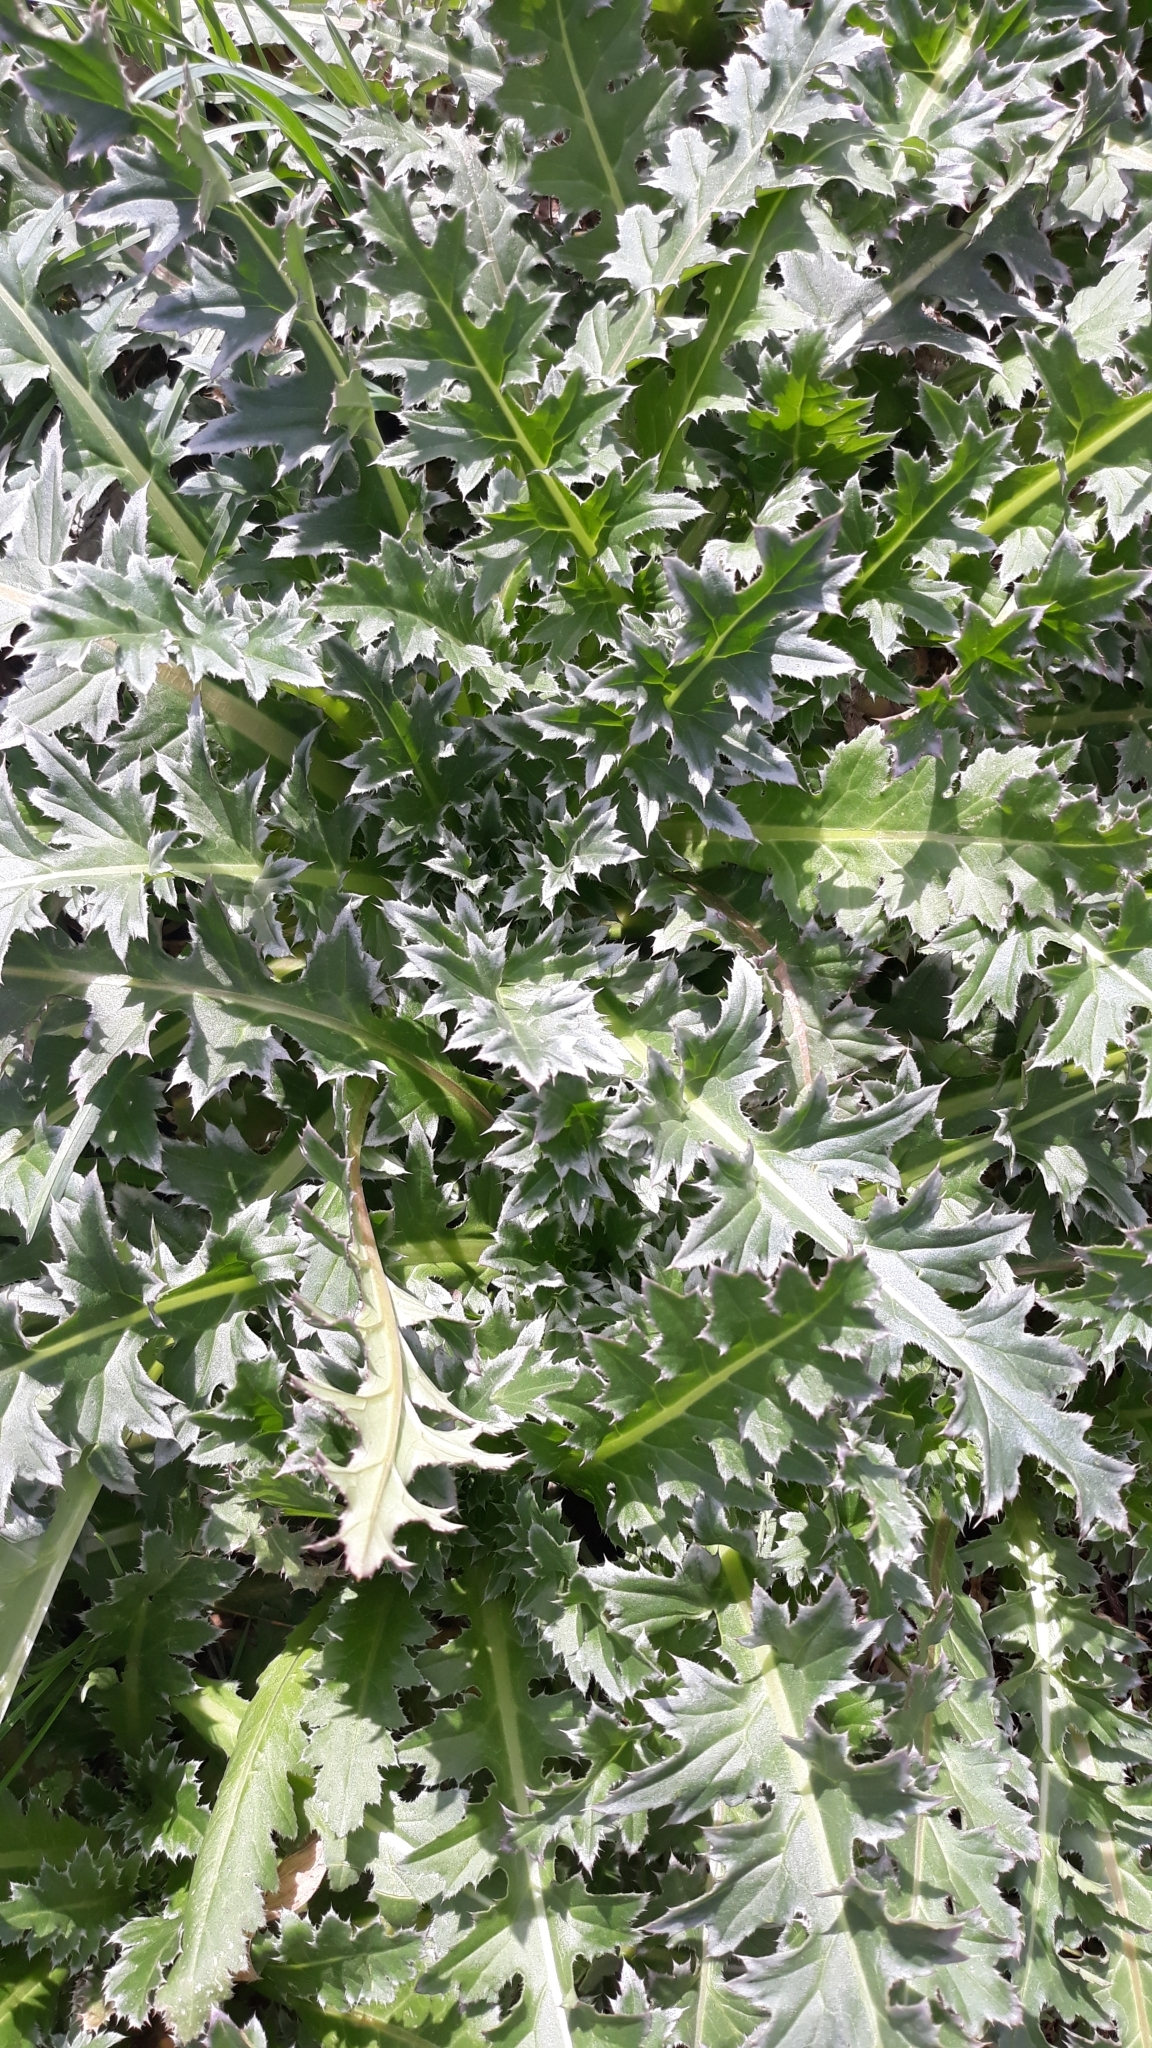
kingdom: Plantae
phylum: Tracheophyta
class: Magnoliopsida
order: Asterales
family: Asteraceae
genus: Carduus
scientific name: Carduus nutans
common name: Musk thistle
